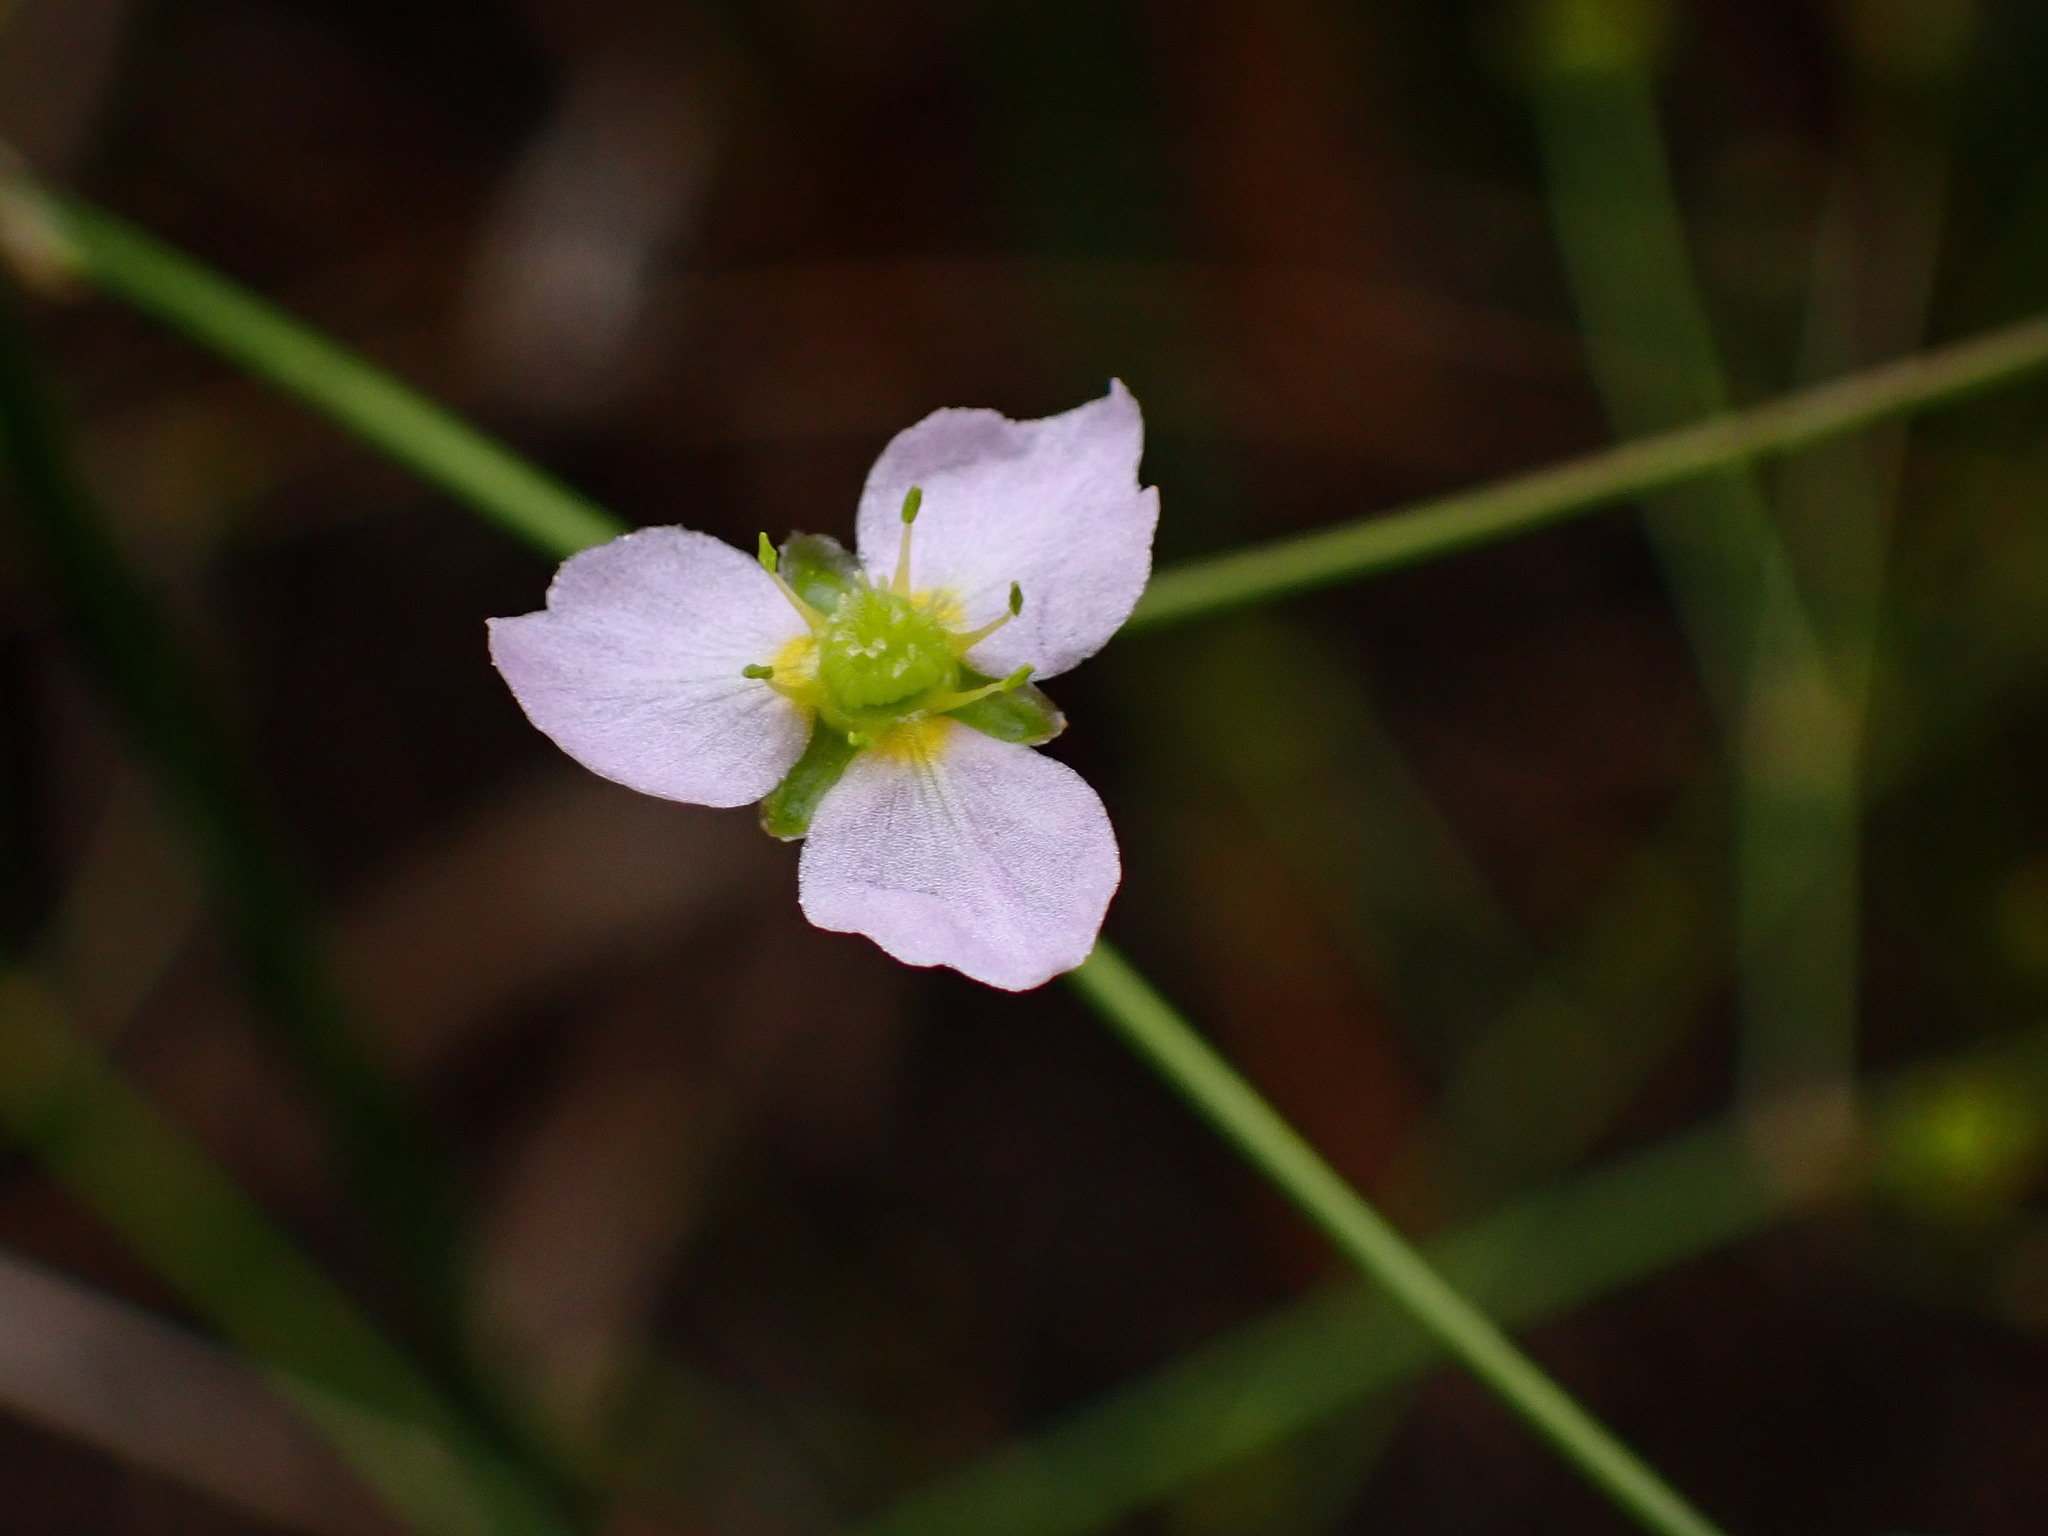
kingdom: Plantae
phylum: Tracheophyta
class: Liliopsida
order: Alismatales
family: Alismataceae
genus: Alisma
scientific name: Alisma lanceolatum
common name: Narrow-leaved water-plantain
